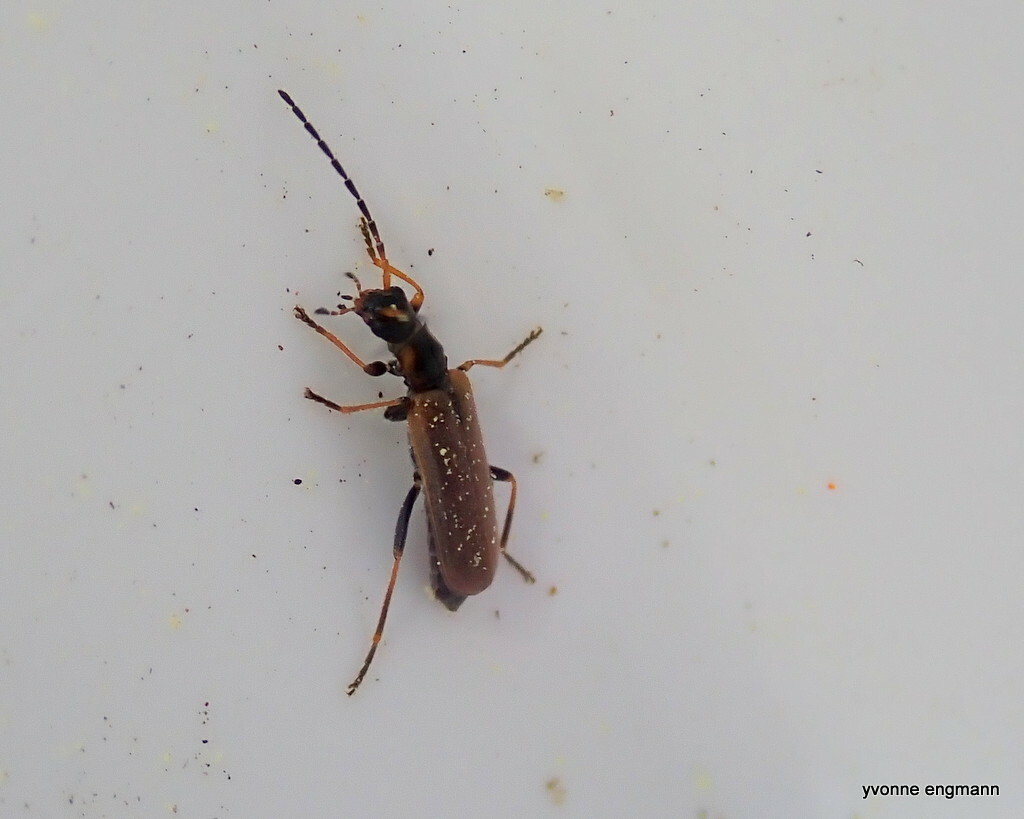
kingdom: Animalia
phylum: Arthropoda
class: Insecta
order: Coleoptera
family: Cantharidae
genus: Rhagonycha
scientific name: Rhagonycha nigriventris
